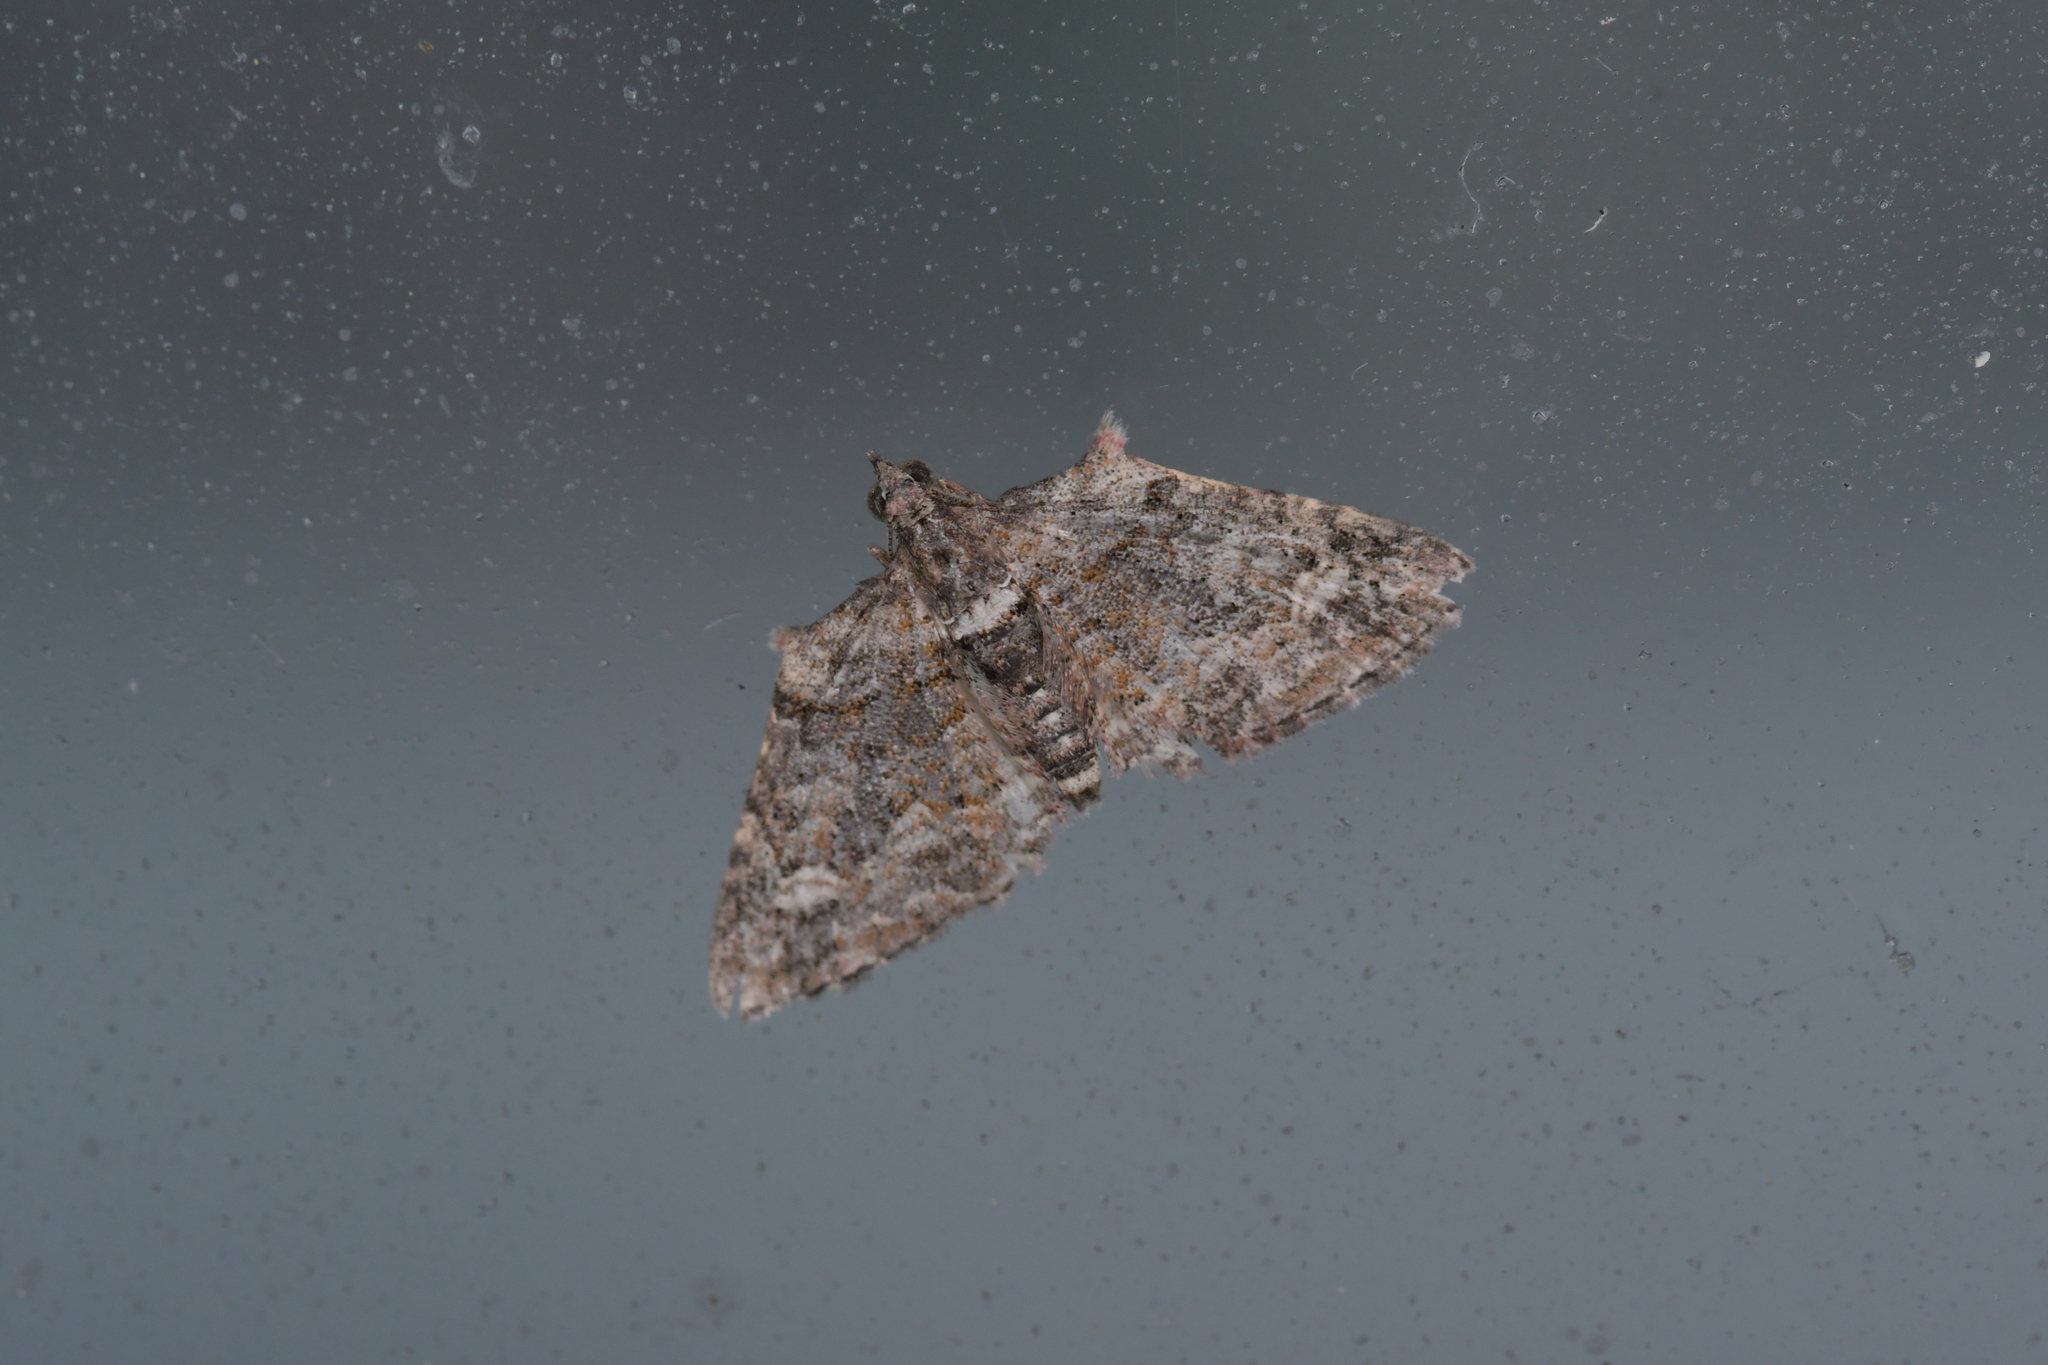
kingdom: Animalia
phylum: Arthropoda
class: Insecta
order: Lepidoptera
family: Geometridae
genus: Phrissogonus
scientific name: Phrissogonus laticostata
